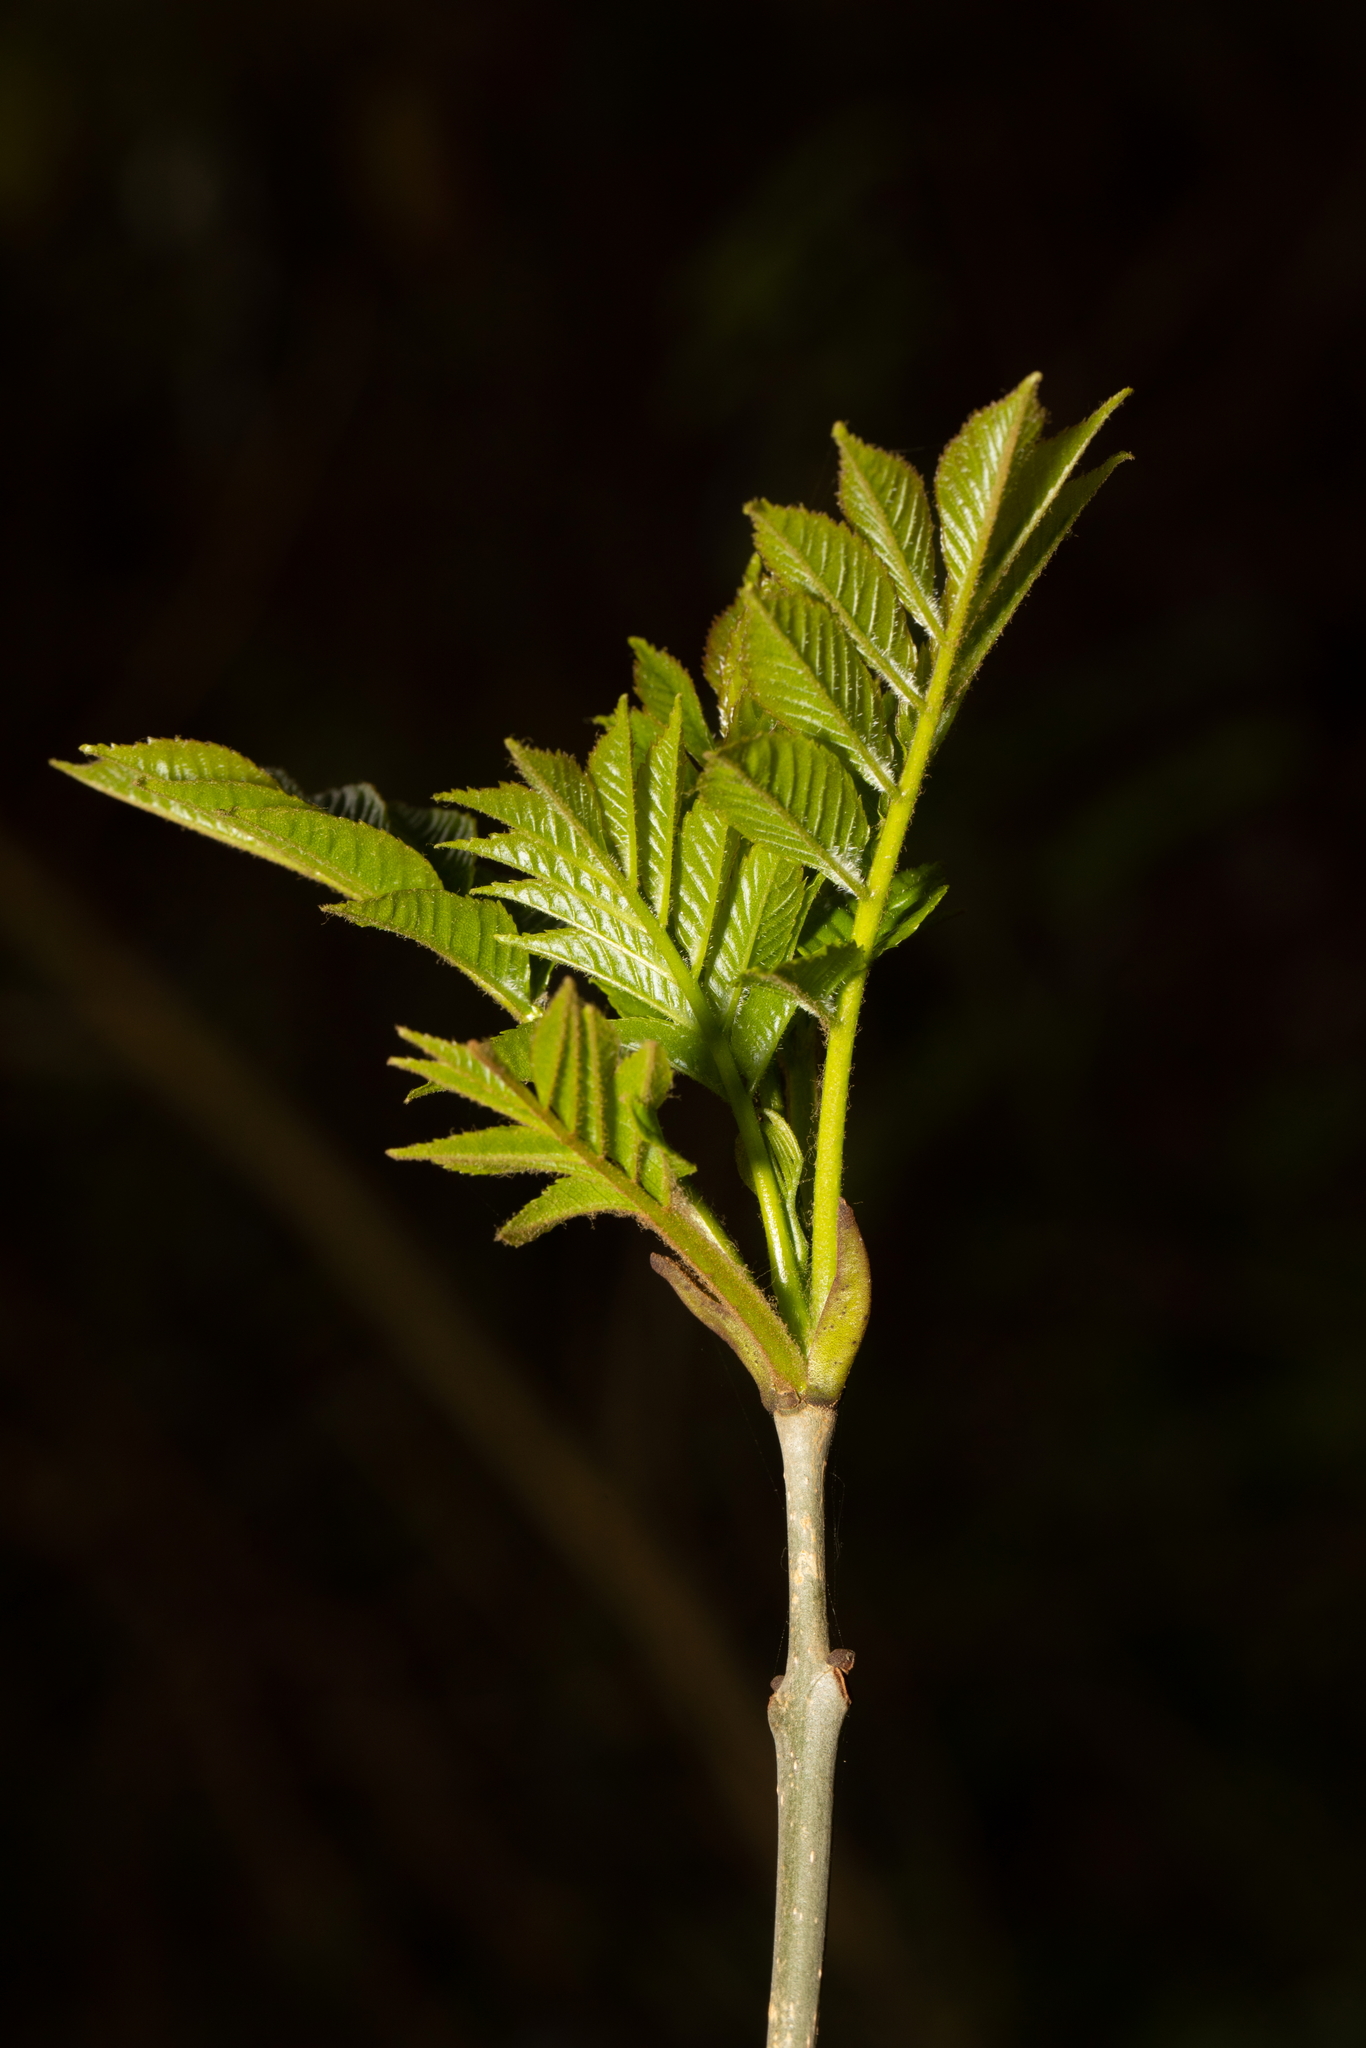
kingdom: Plantae
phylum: Tracheophyta
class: Magnoliopsida
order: Lamiales
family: Oleaceae
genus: Fraxinus
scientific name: Fraxinus excelsior
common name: European ash
